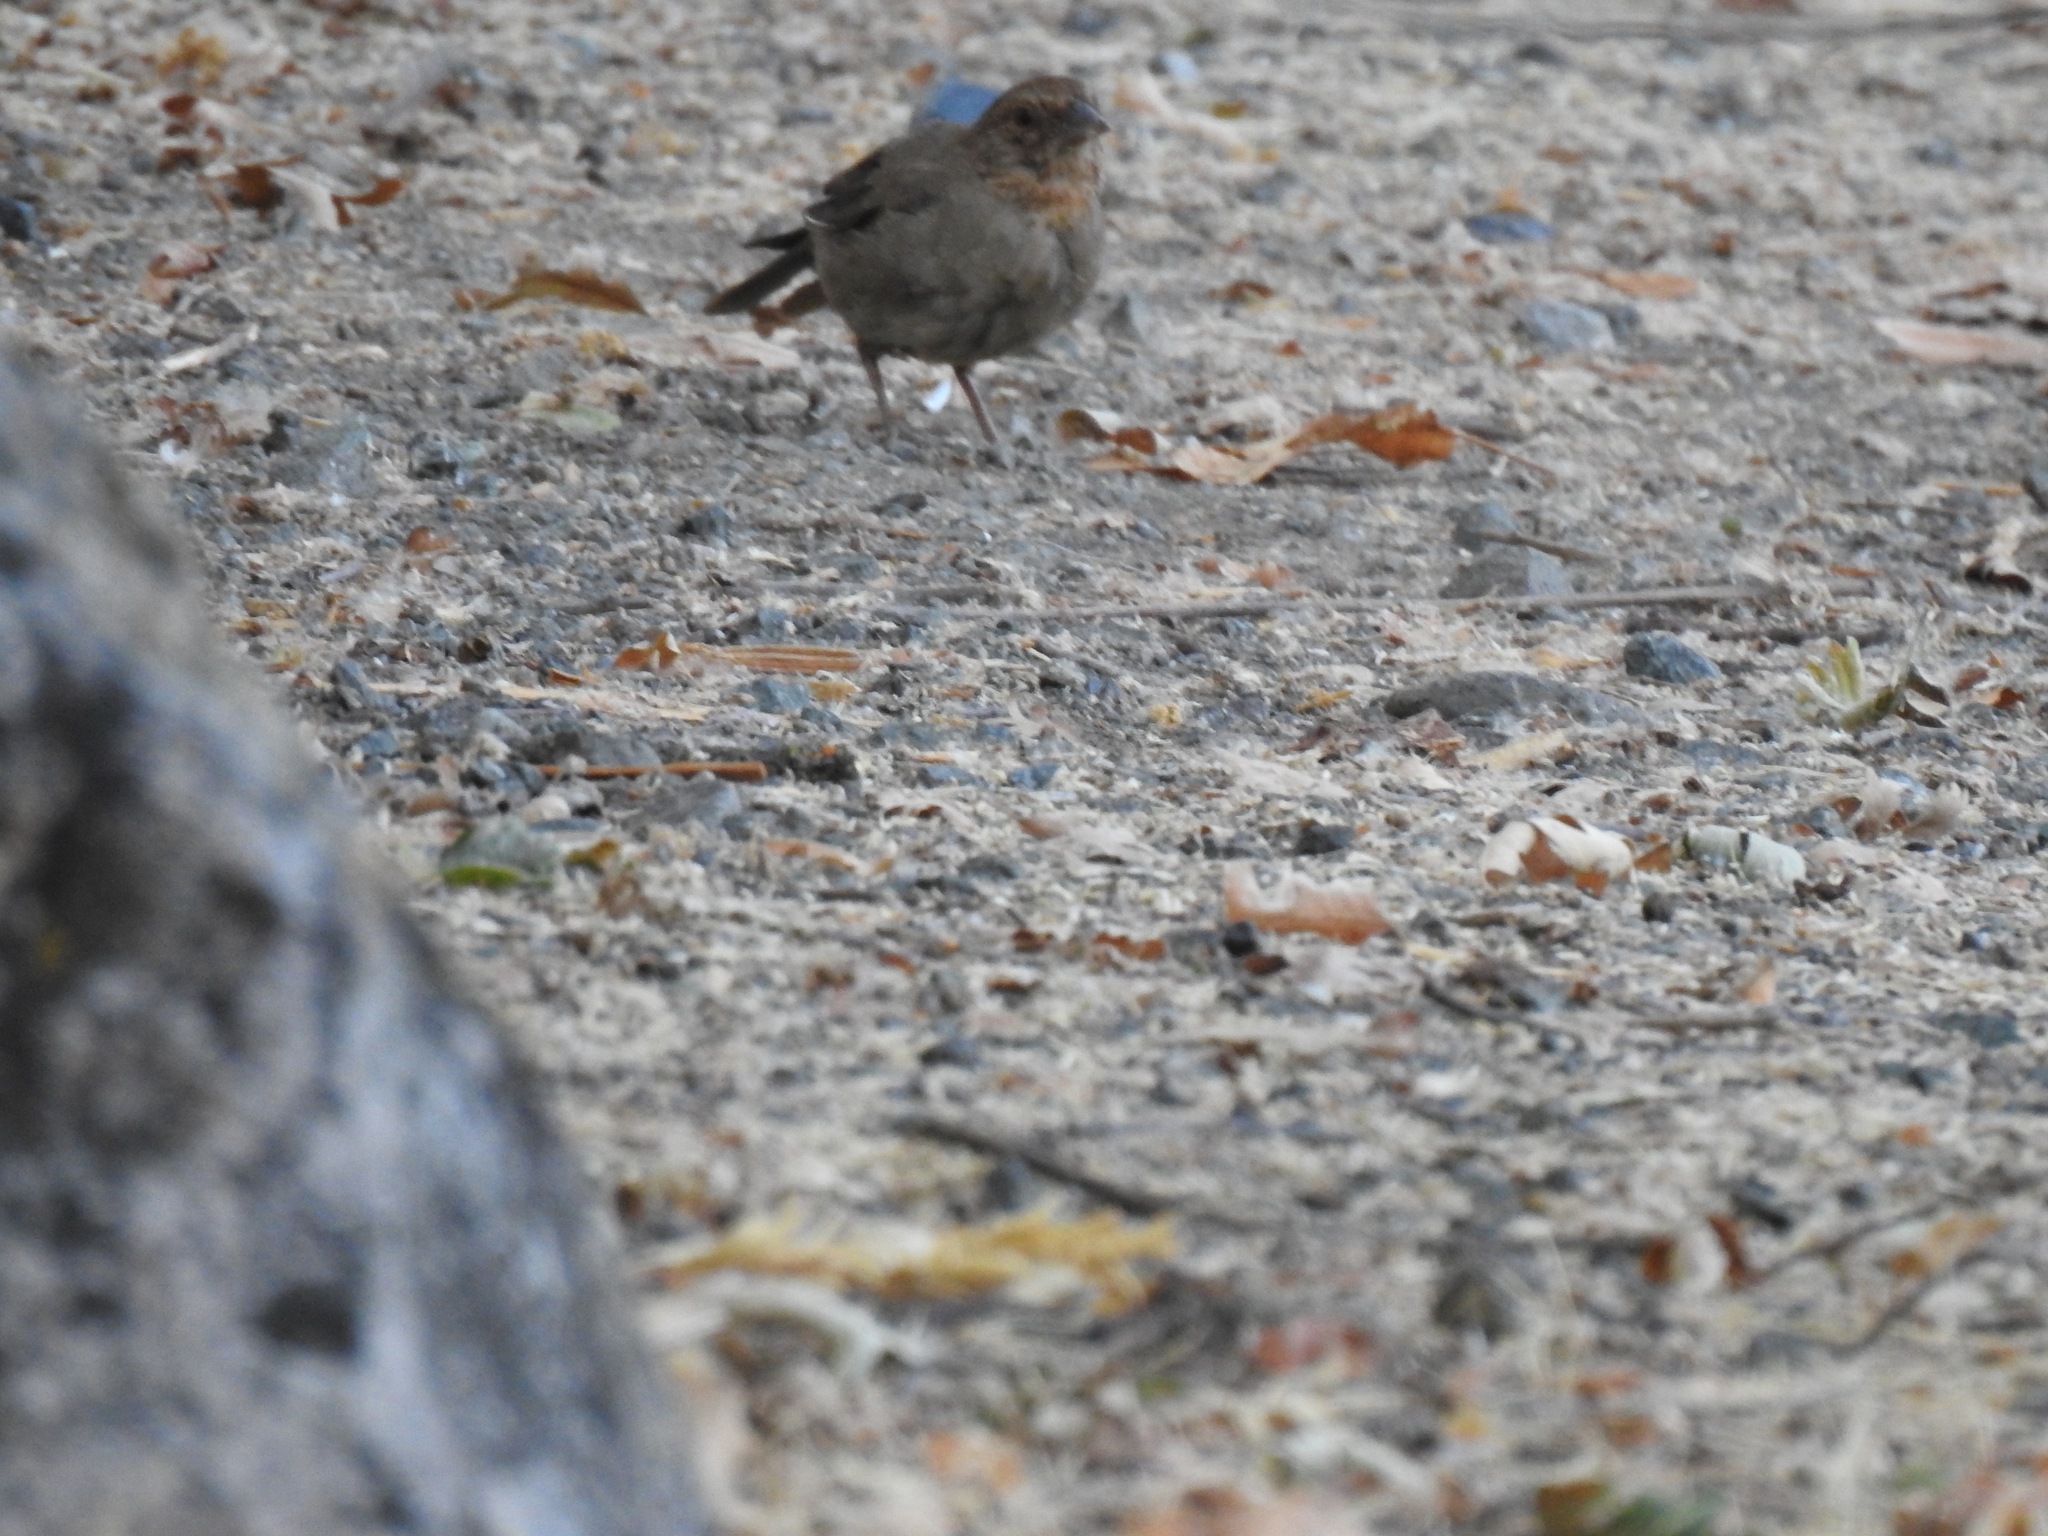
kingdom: Animalia
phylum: Chordata
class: Aves
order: Passeriformes
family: Passerellidae
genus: Melozone
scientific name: Melozone crissalis
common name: California towhee
